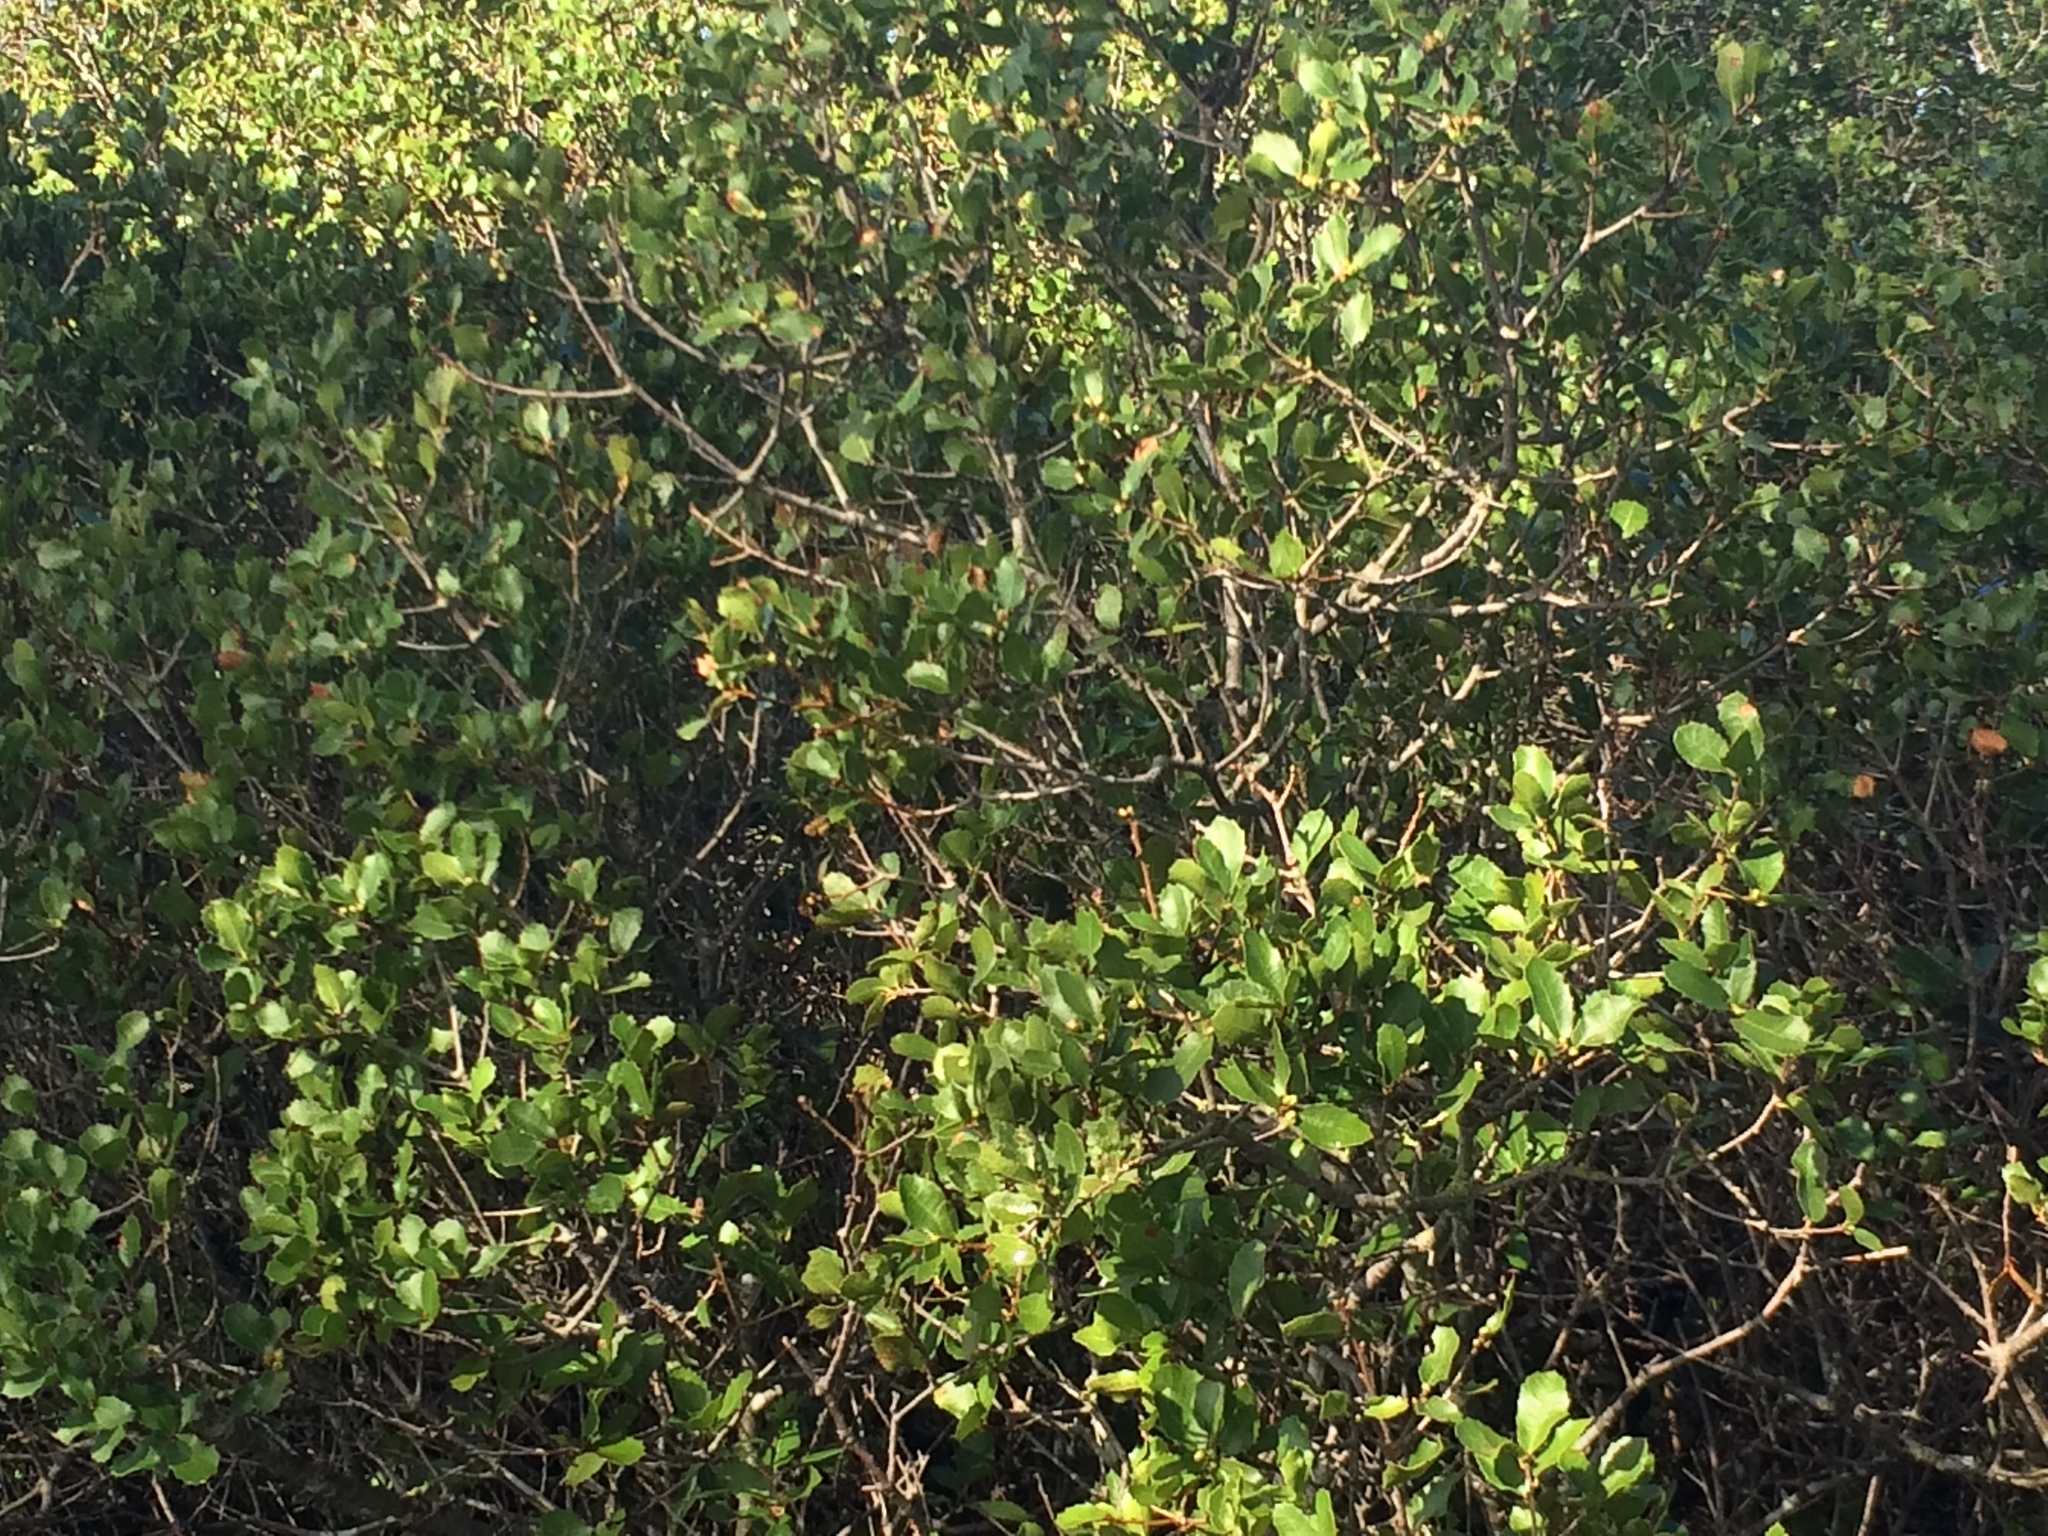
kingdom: Plantae
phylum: Tracheophyta
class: Magnoliopsida
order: Fagales
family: Fagaceae
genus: Quercus
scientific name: Quercus coccifera
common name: Kermes oak
